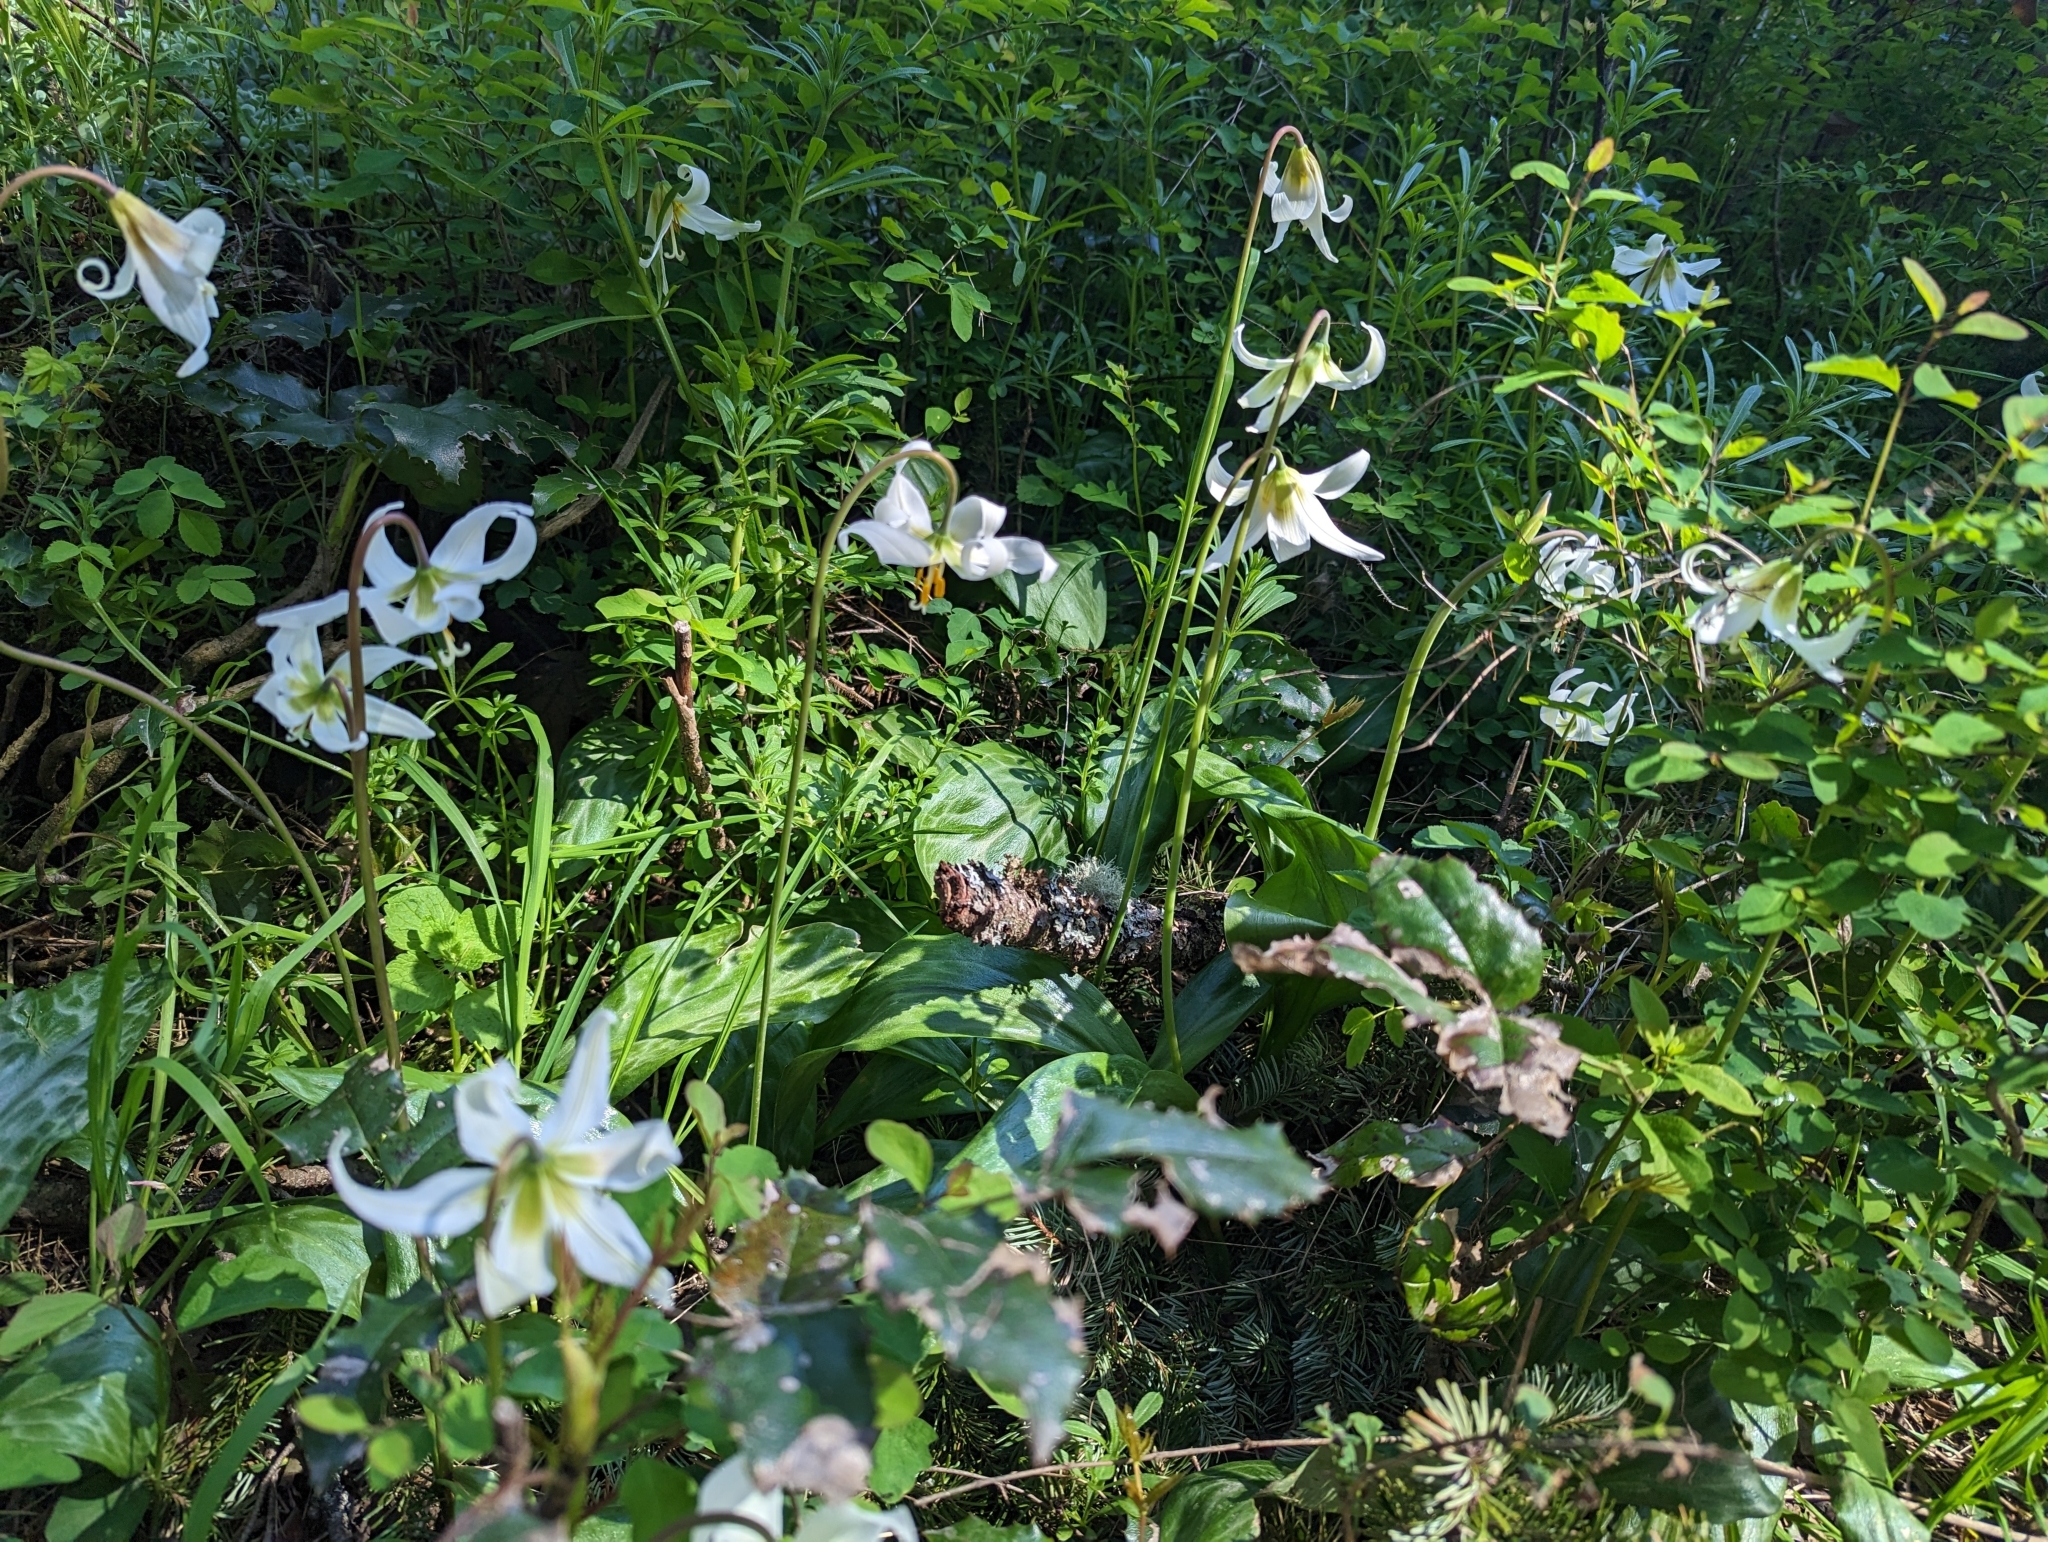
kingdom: Plantae
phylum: Tracheophyta
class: Liliopsida
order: Liliales
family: Liliaceae
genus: Erythronium
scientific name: Erythronium oregonum
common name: Giant adder's-tongue
